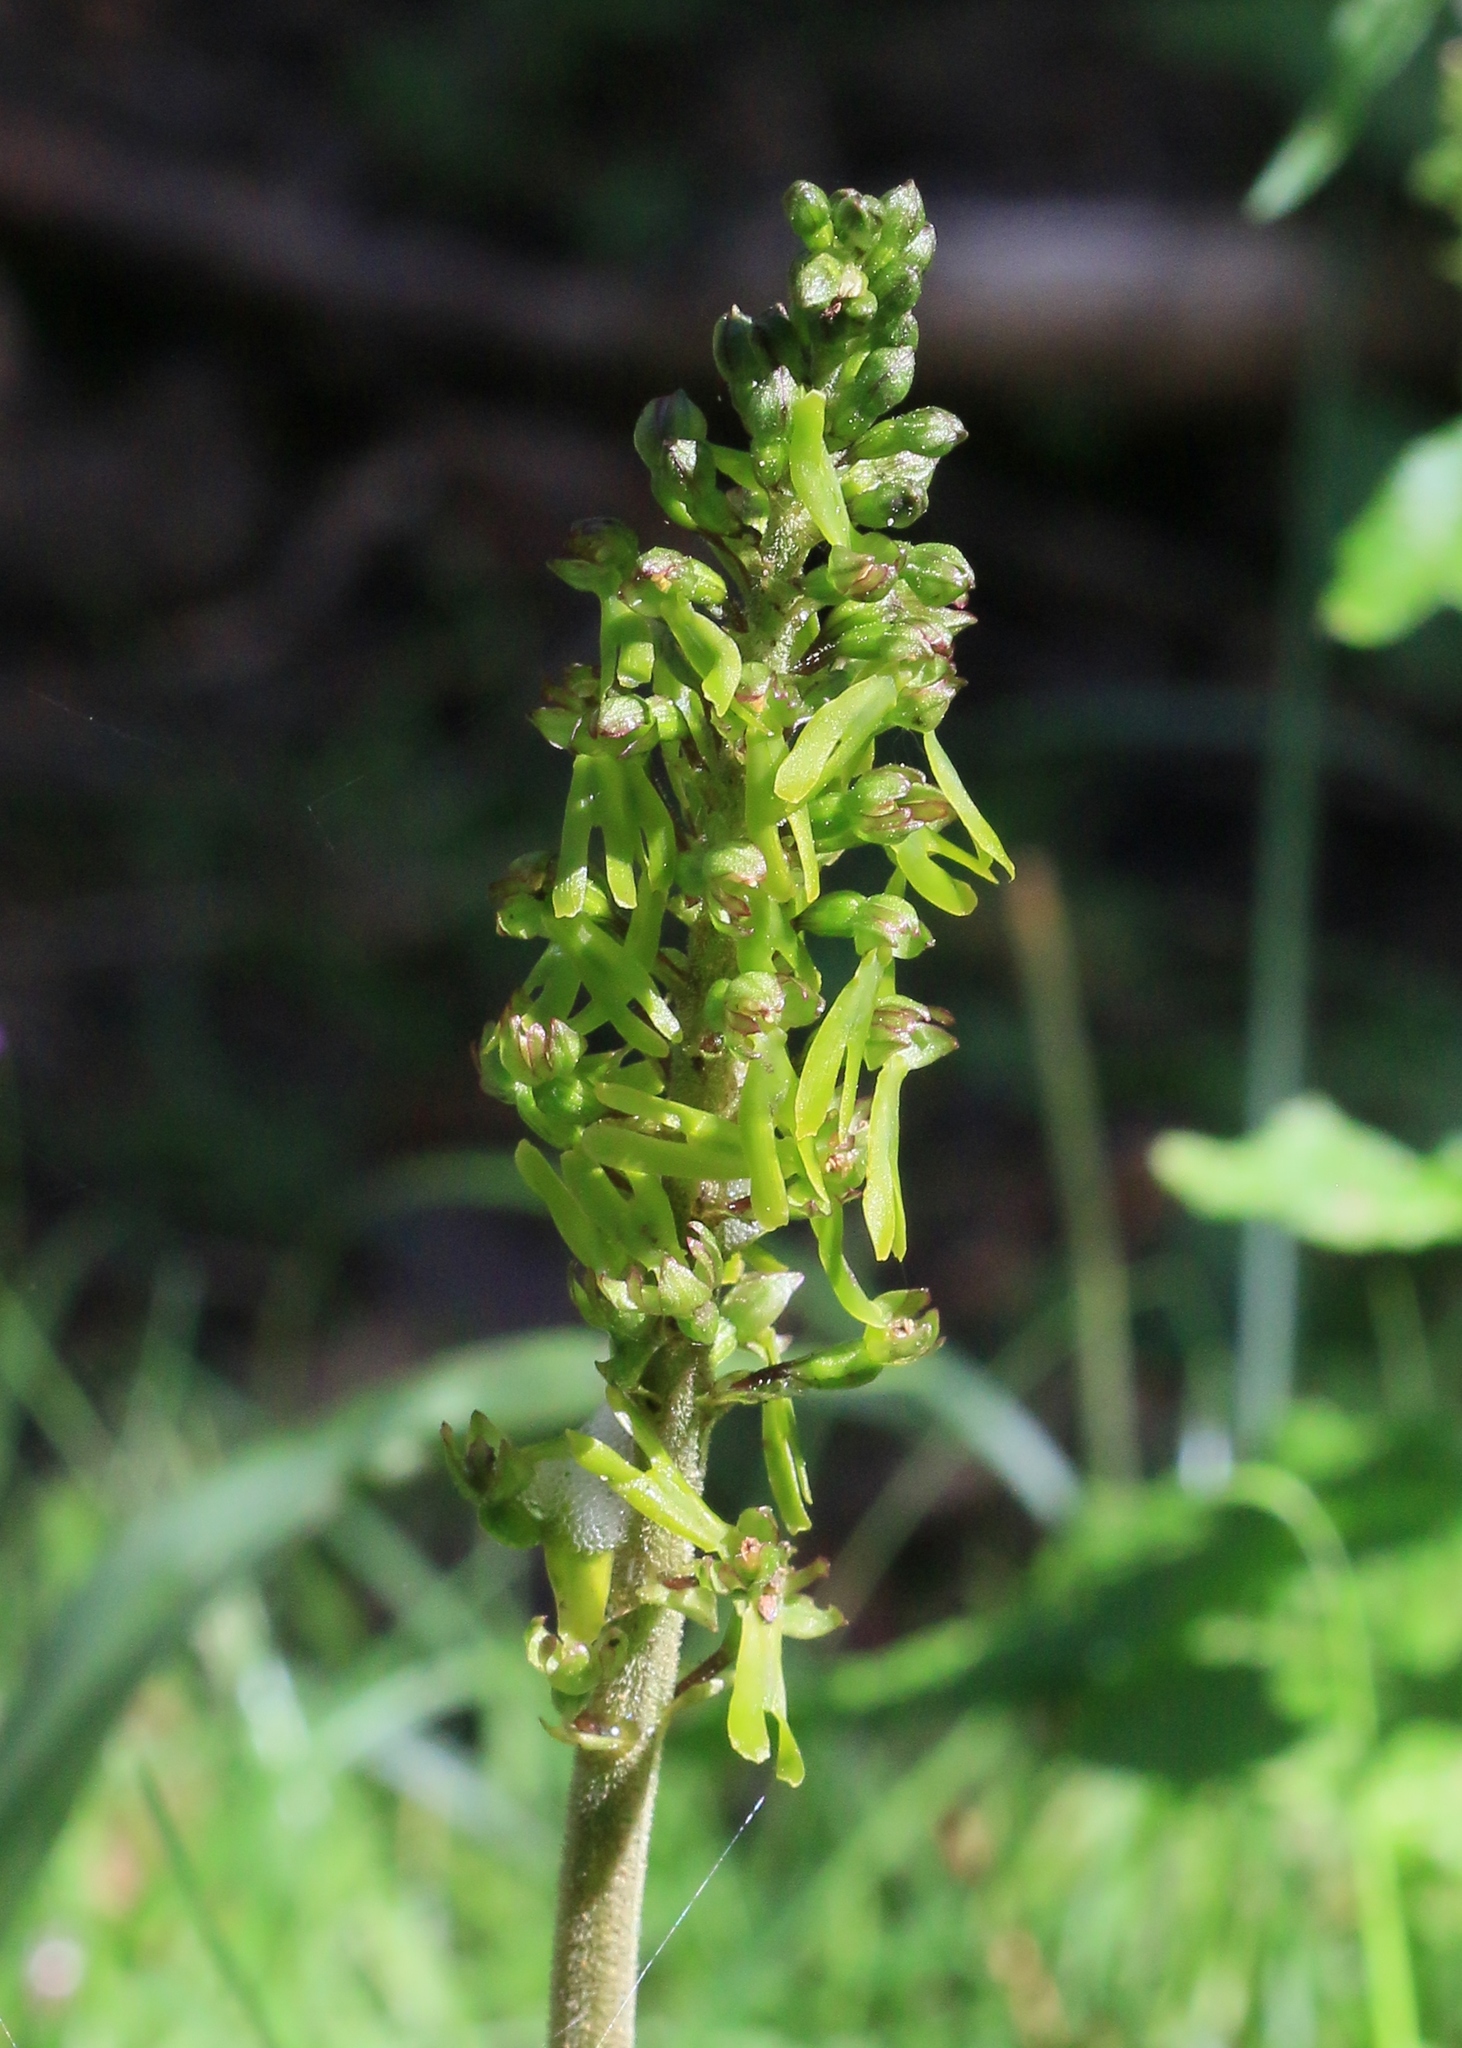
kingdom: Plantae
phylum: Tracheophyta
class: Liliopsida
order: Asparagales
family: Orchidaceae
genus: Neottia
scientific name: Neottia ovata
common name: Common twayblade
